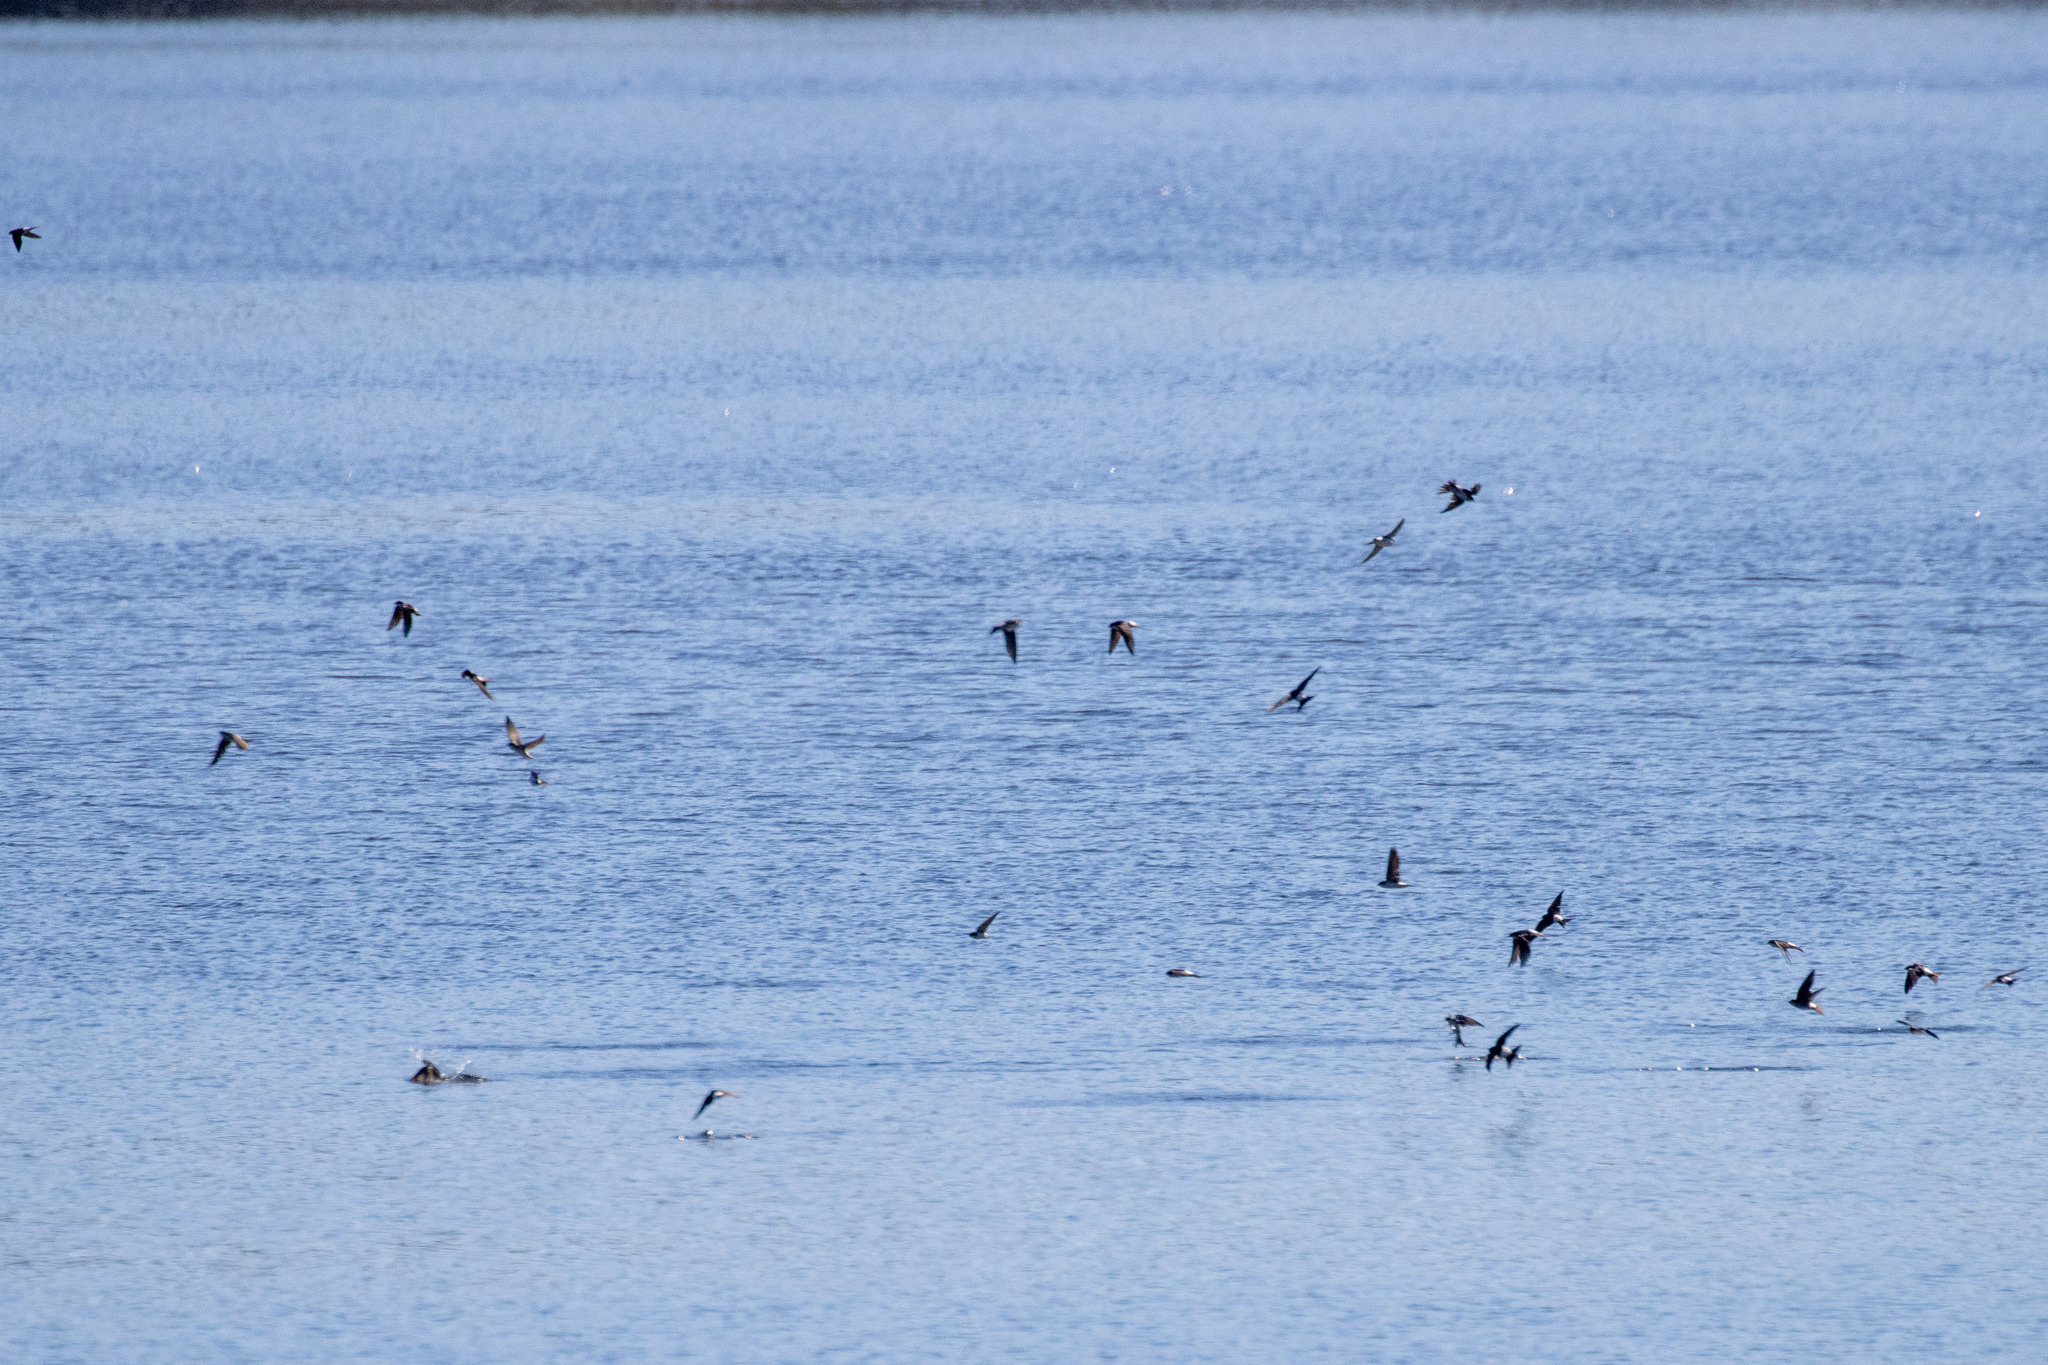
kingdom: Animalia
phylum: Chordata
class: Aves
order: Passeriformes
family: Hirundinidae
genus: Delichon
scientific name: Delichon urbicum
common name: Common house martin
